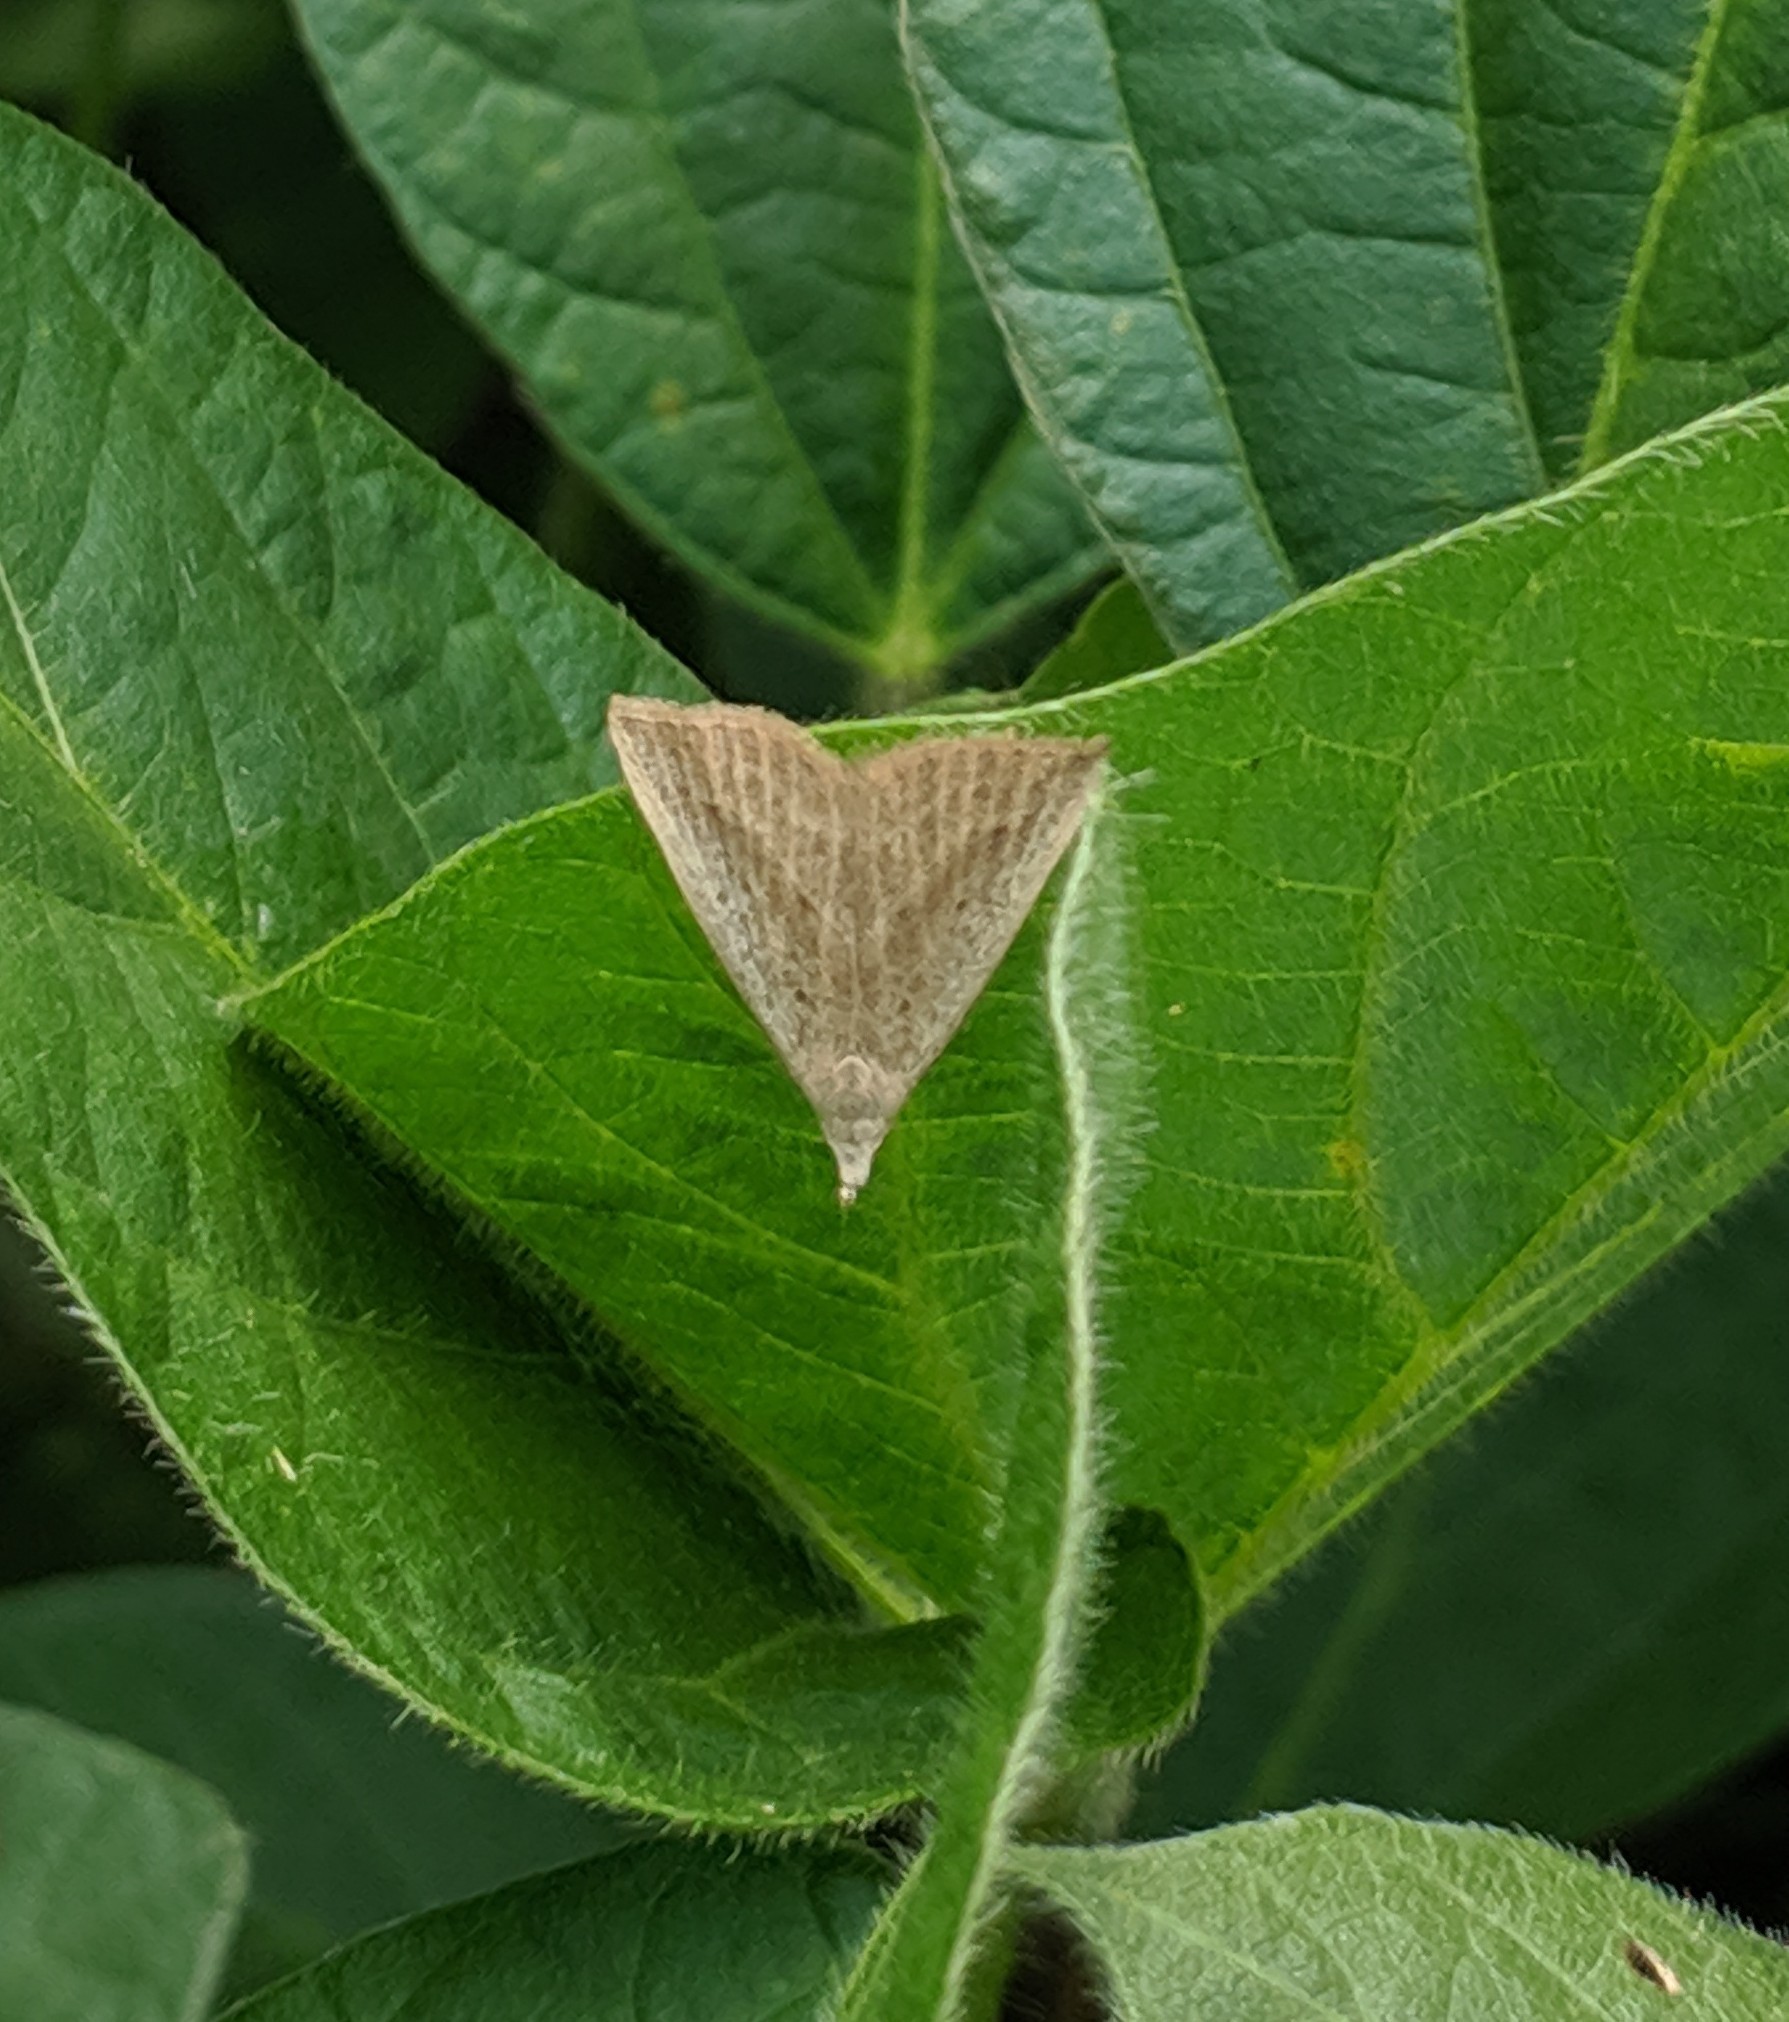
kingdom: Animalia
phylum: Arthropoda
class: Insecta
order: Lepidoptera
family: Erebidae
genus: Macrochilo
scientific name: Macrochilo louisiana
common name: Louisiana macrochilo
